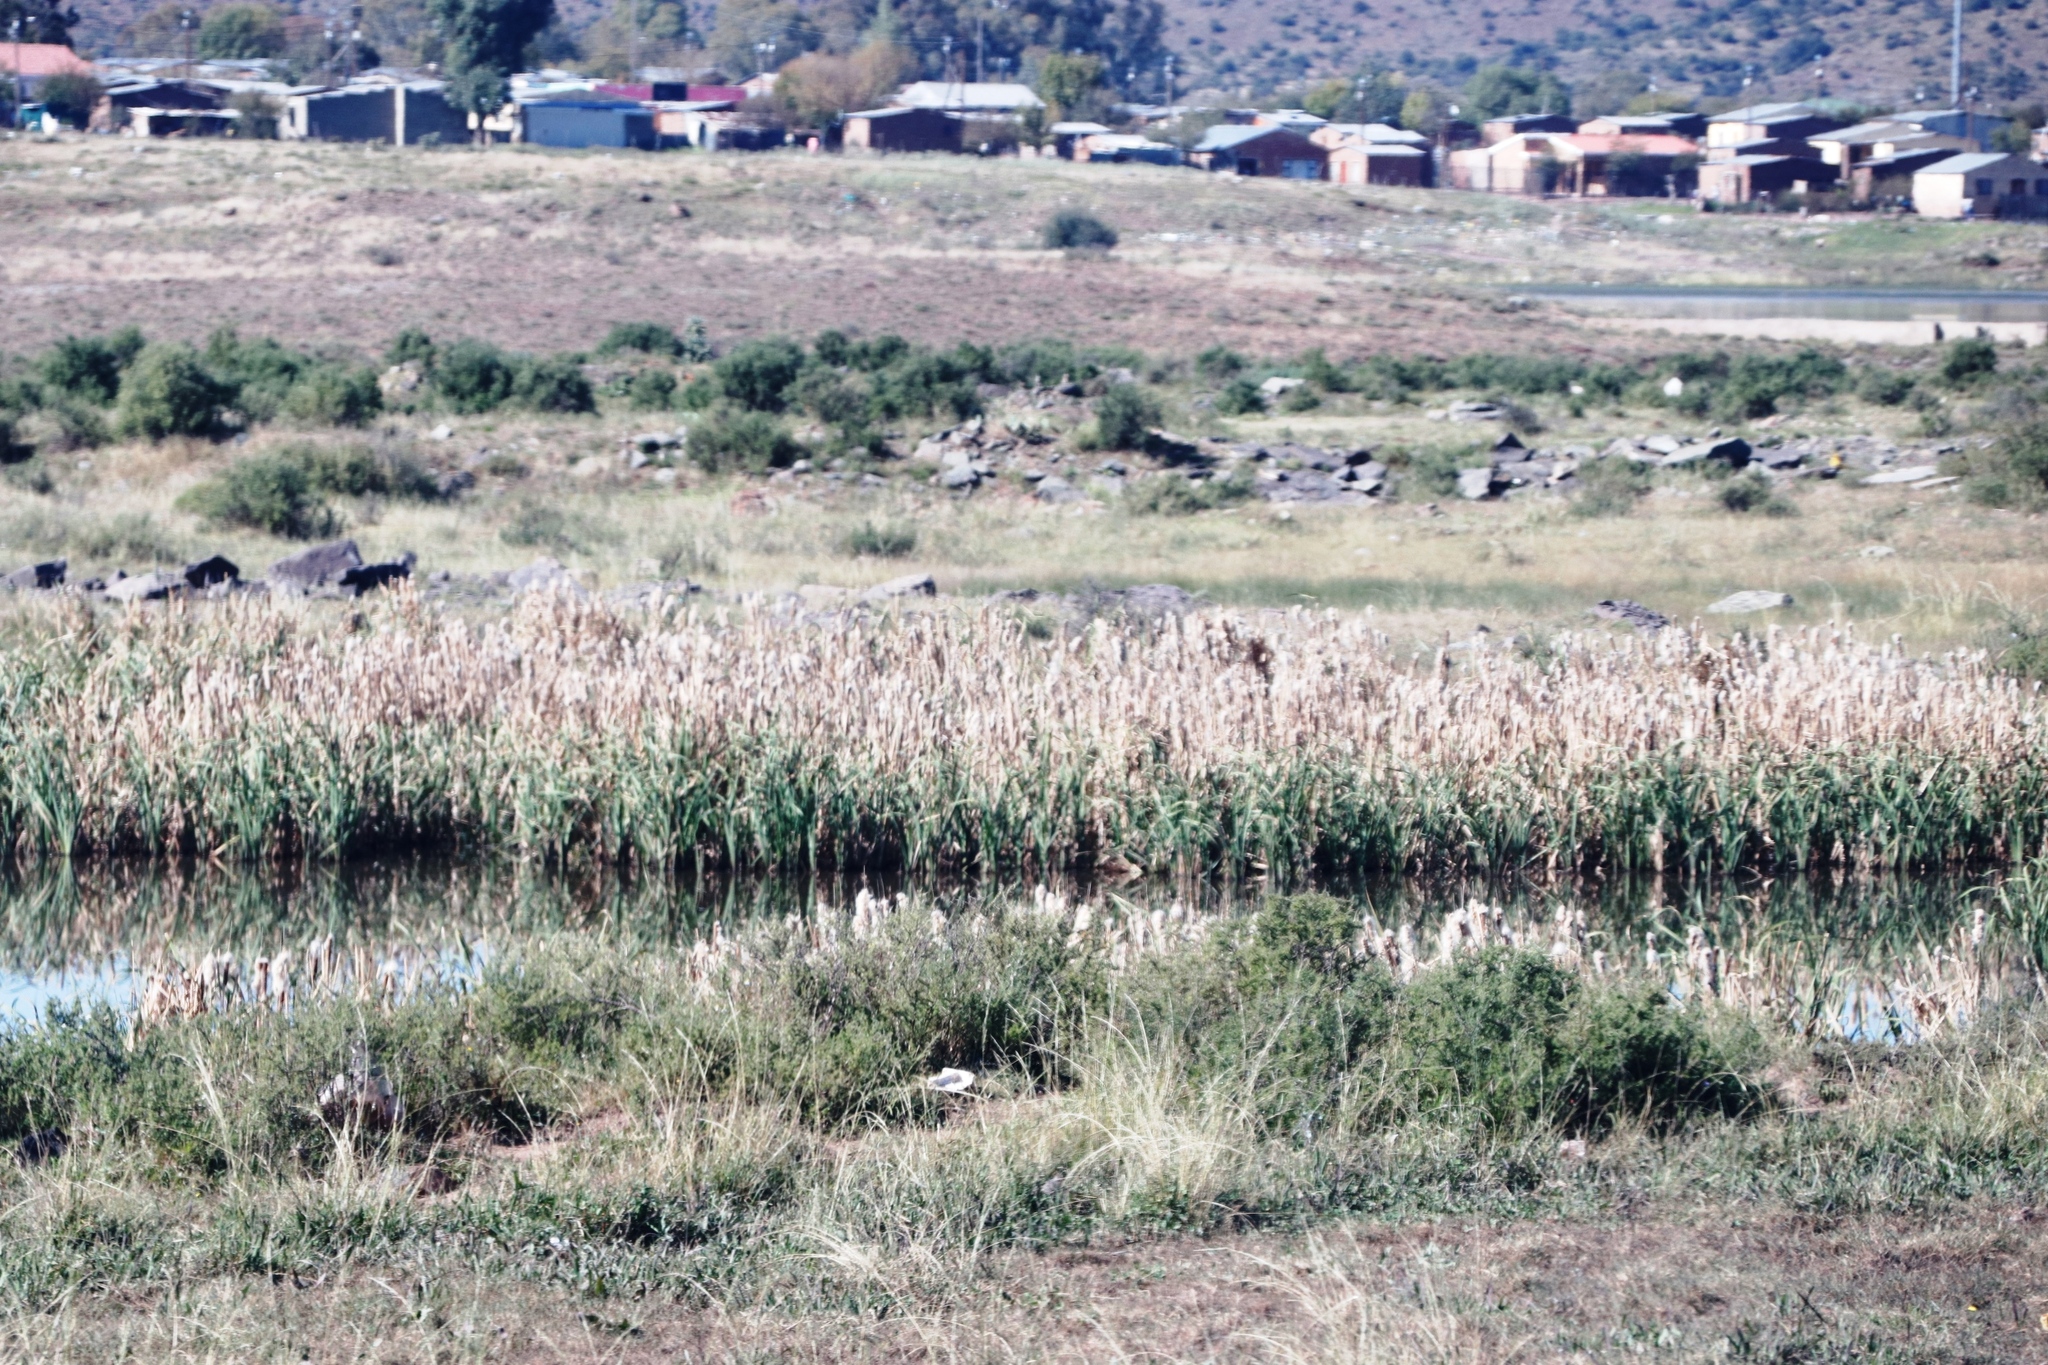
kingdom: Plantae
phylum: Tracheophyta
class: Liliopsida
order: Poales
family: Typhaceae
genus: Typha
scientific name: Typha capensis
